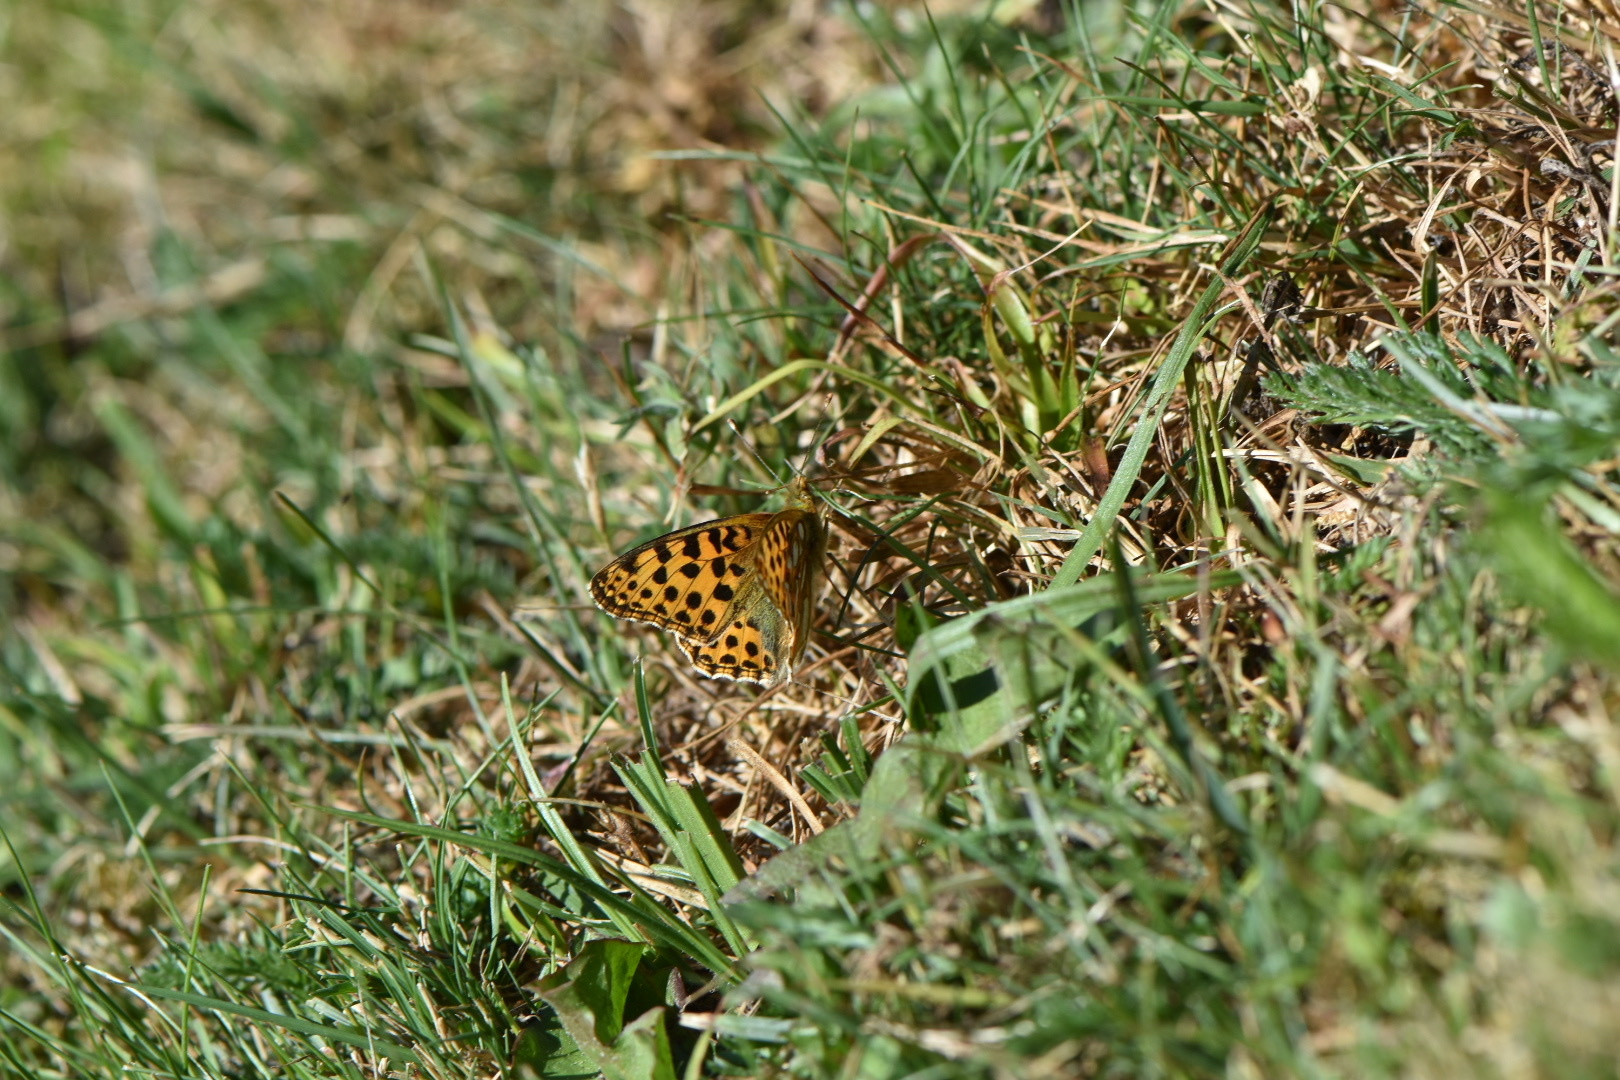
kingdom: Animalia
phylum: Arthropoda
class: Insecta
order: Lepidoptera
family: Nymphalidae
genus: Issoria
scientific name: Issoria lathonia
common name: Queen of spain fritillary
